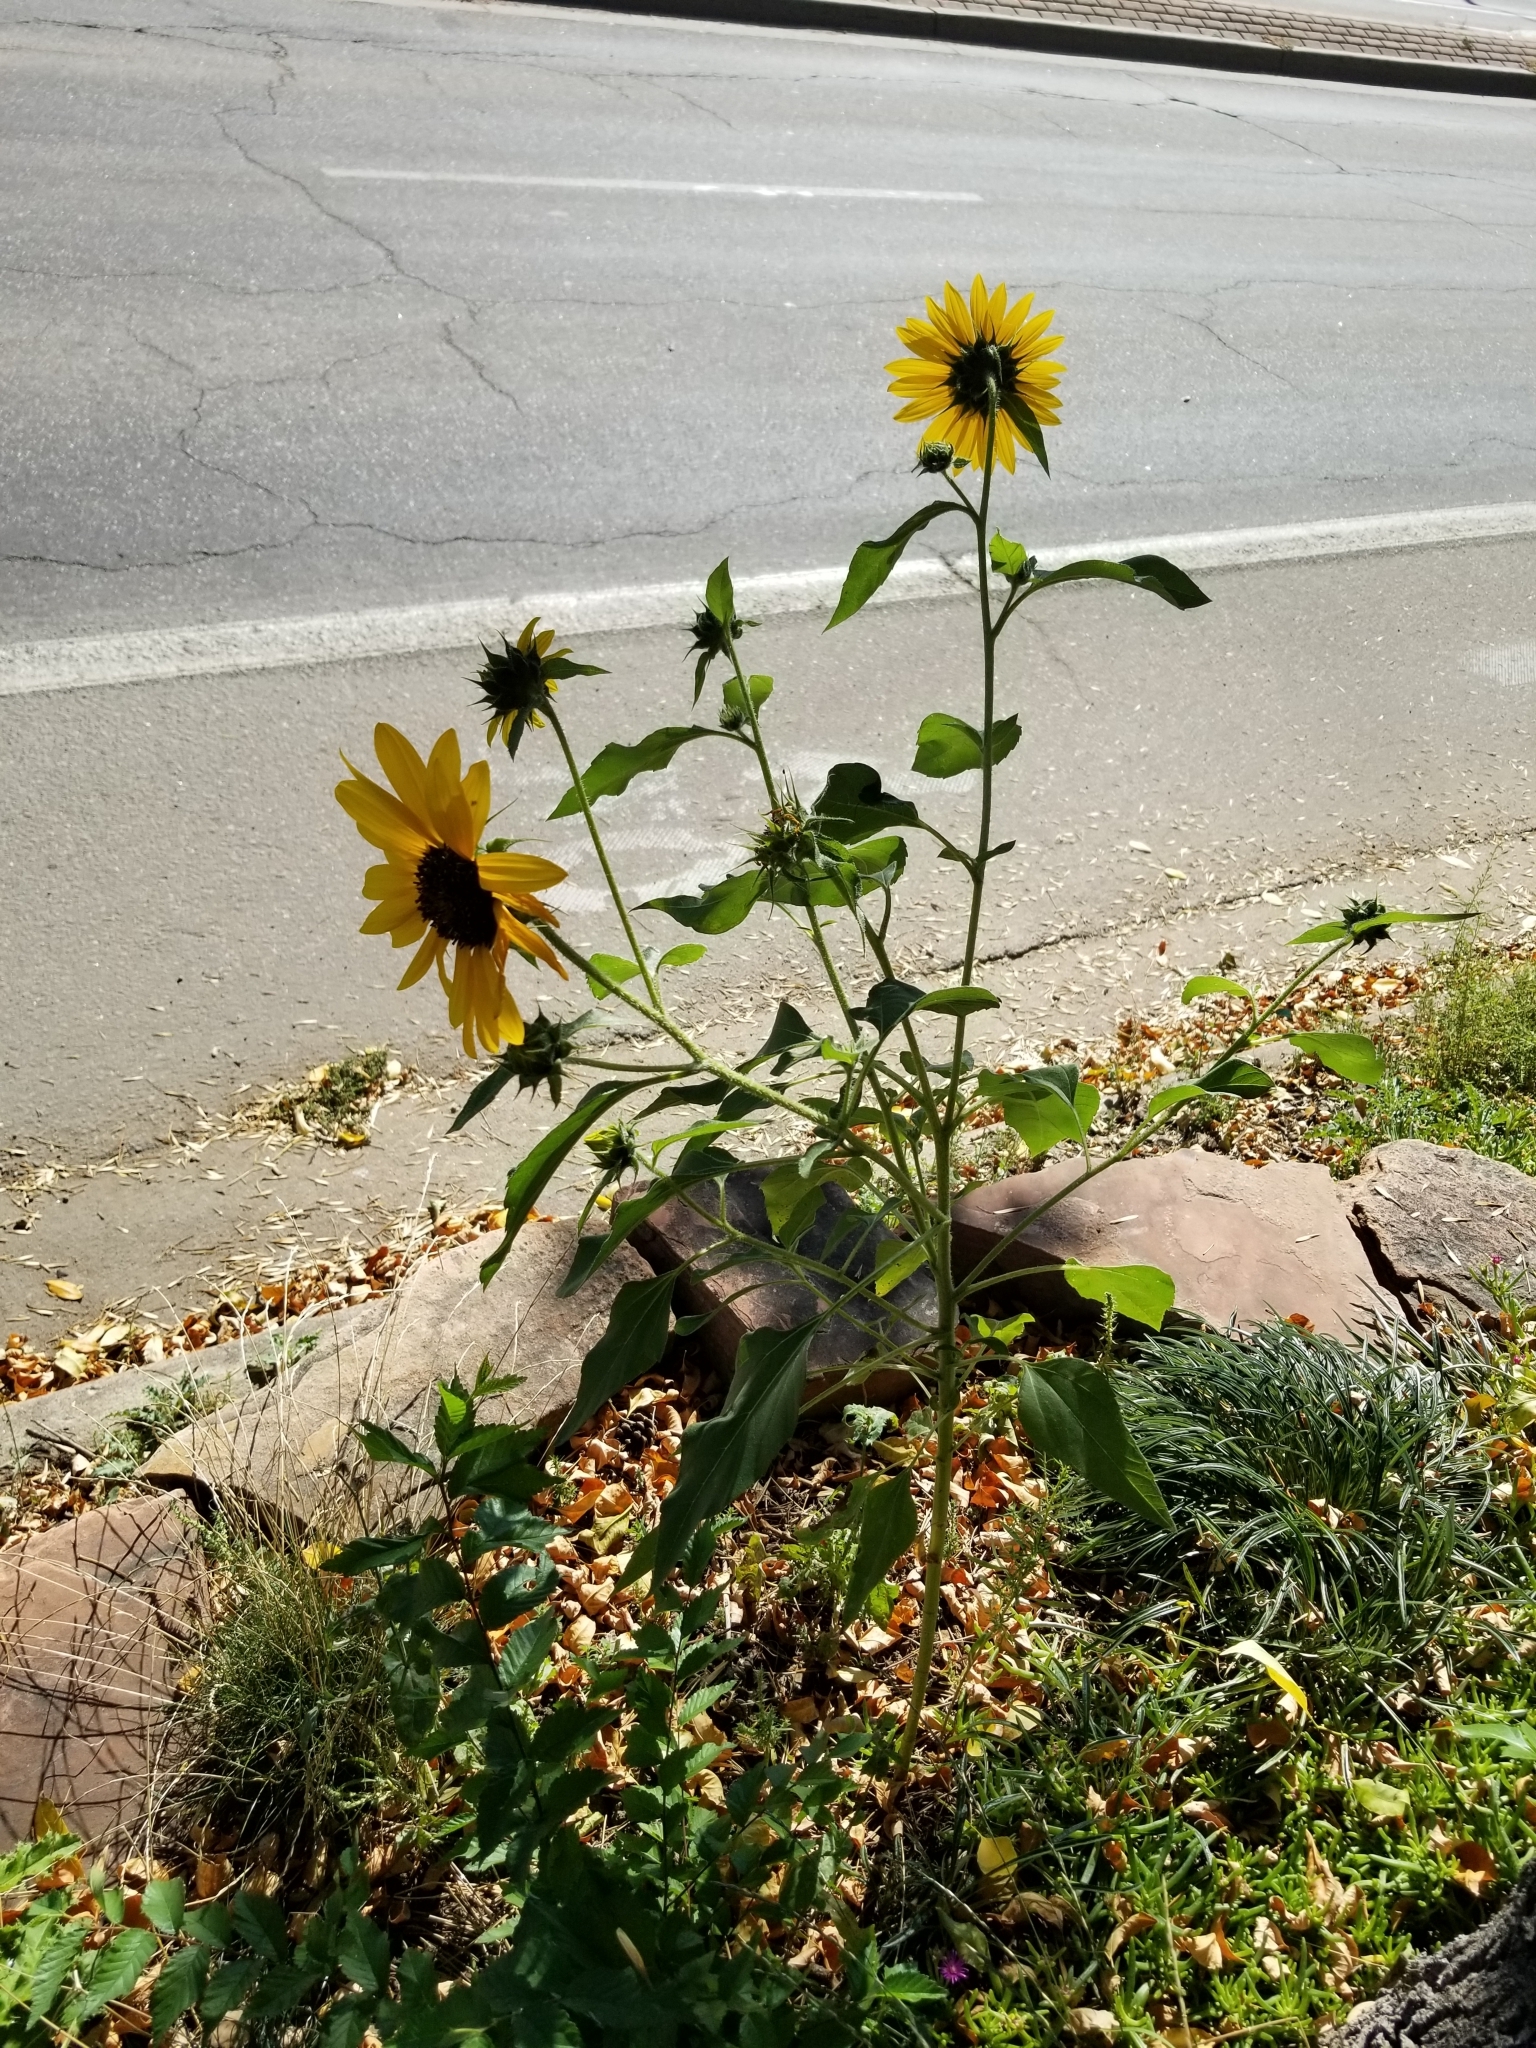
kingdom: Plantae
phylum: Tracheophyta
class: Magnoliopsida
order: Asterales
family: Asteraceae
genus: Helianthus
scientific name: Helianthus annuus
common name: Sunflower
